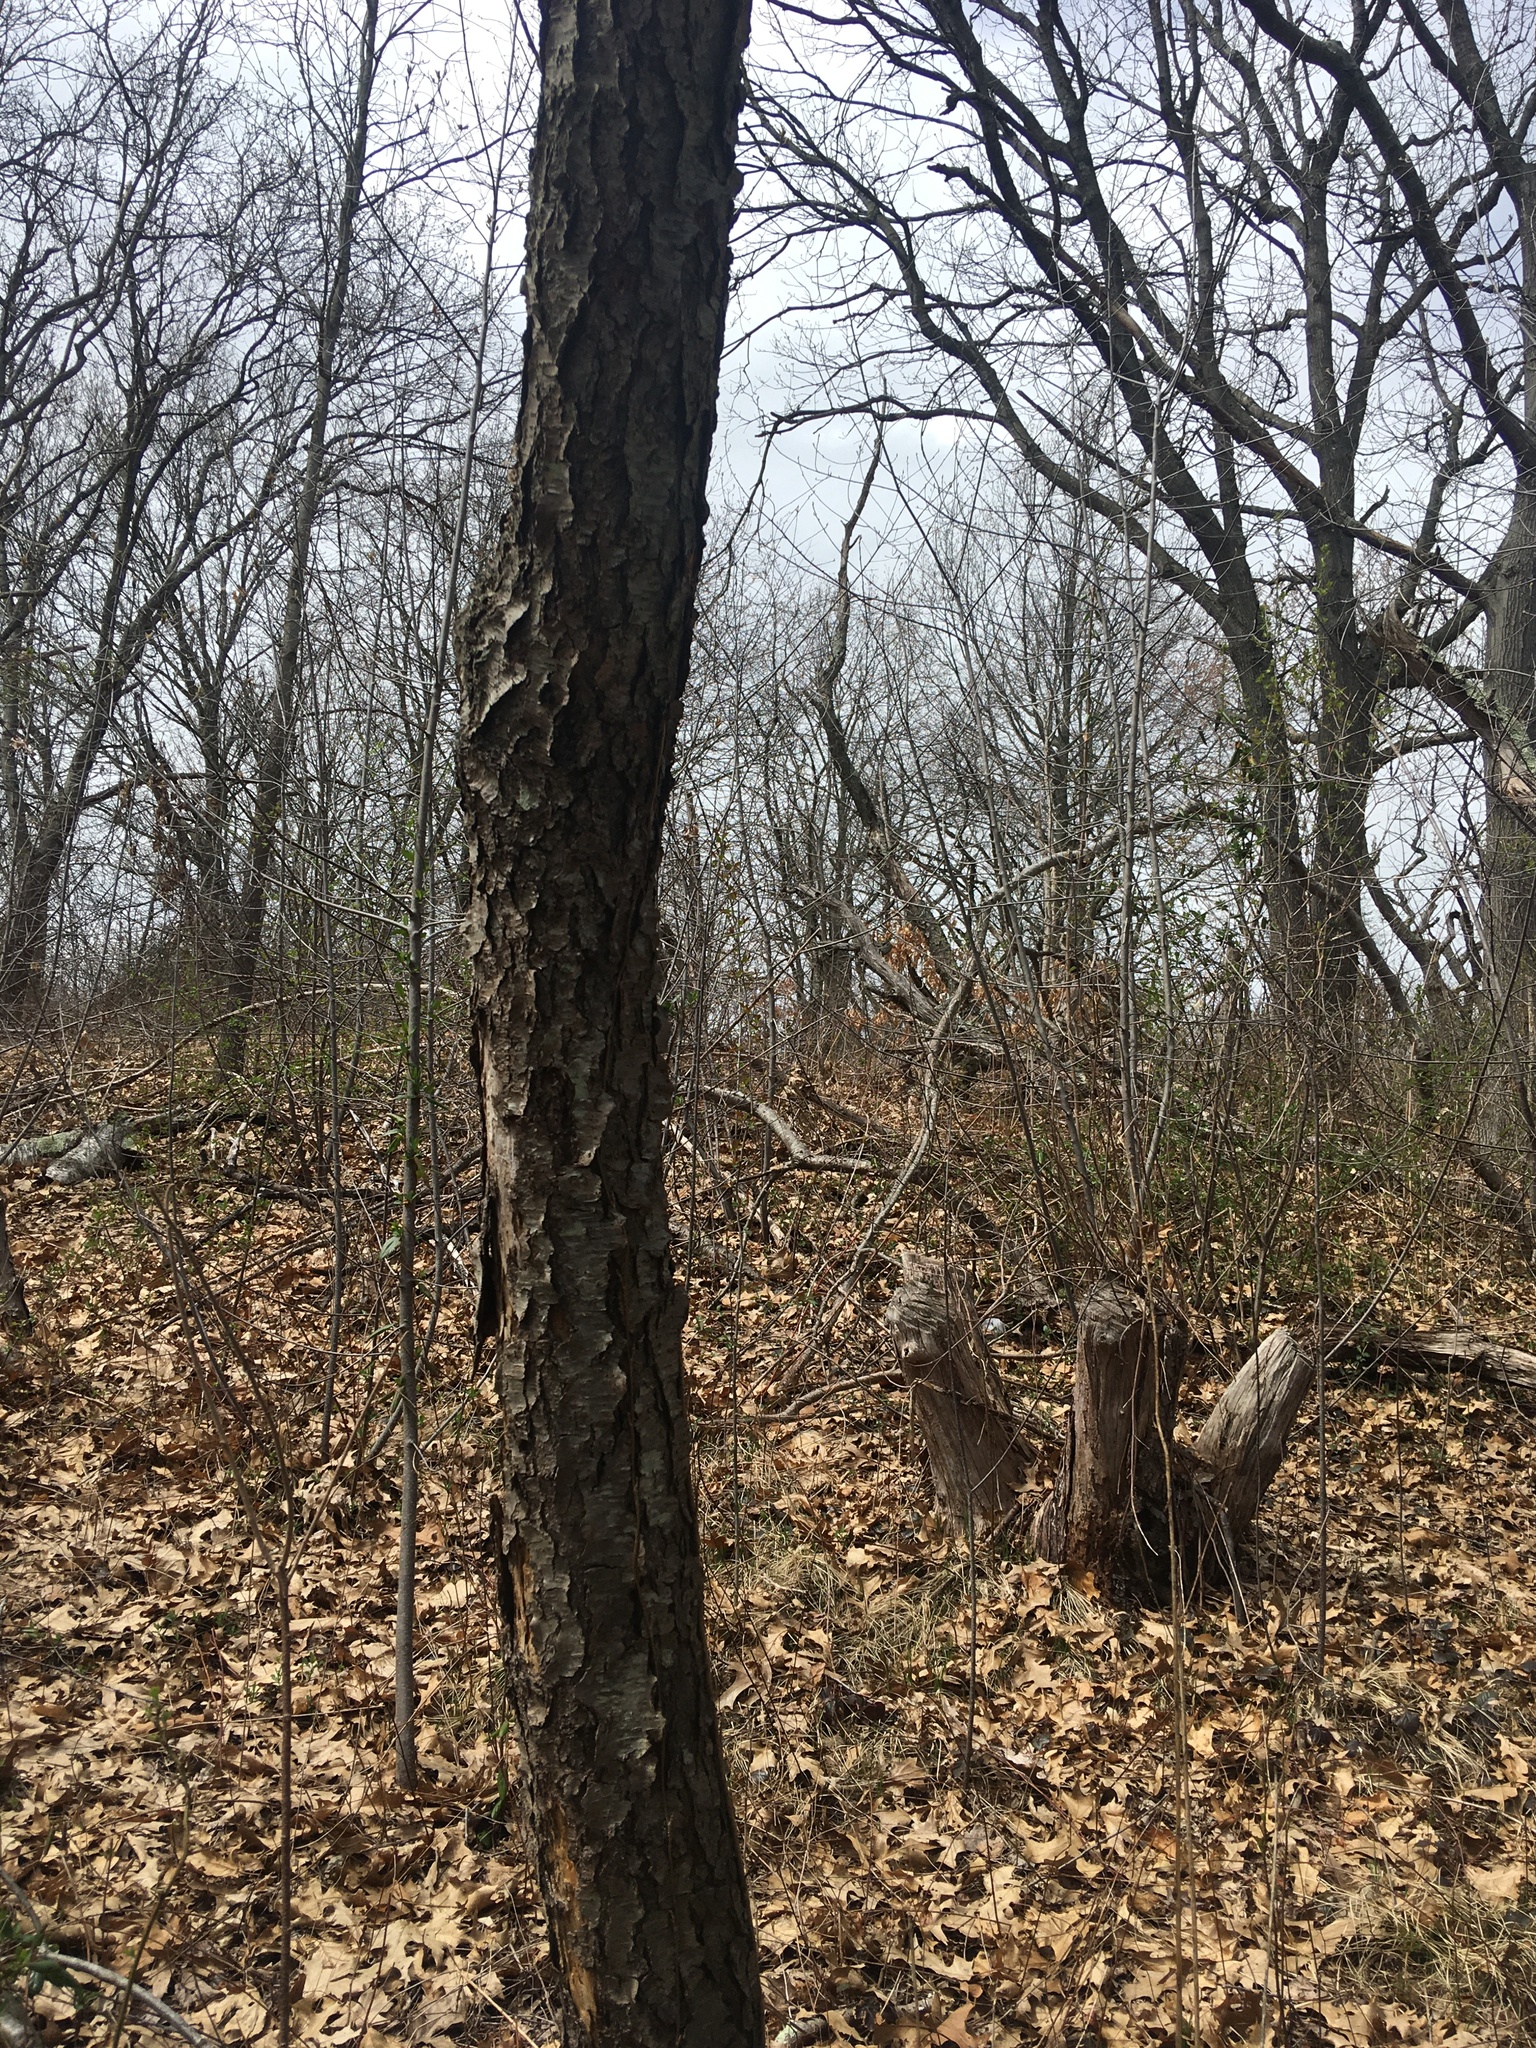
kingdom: Plantae
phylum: Tracheophyta
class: Magnoliopsida
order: Rosales
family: Rosaceae
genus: Prunus
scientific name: Prunus serotina
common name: Black cherry
